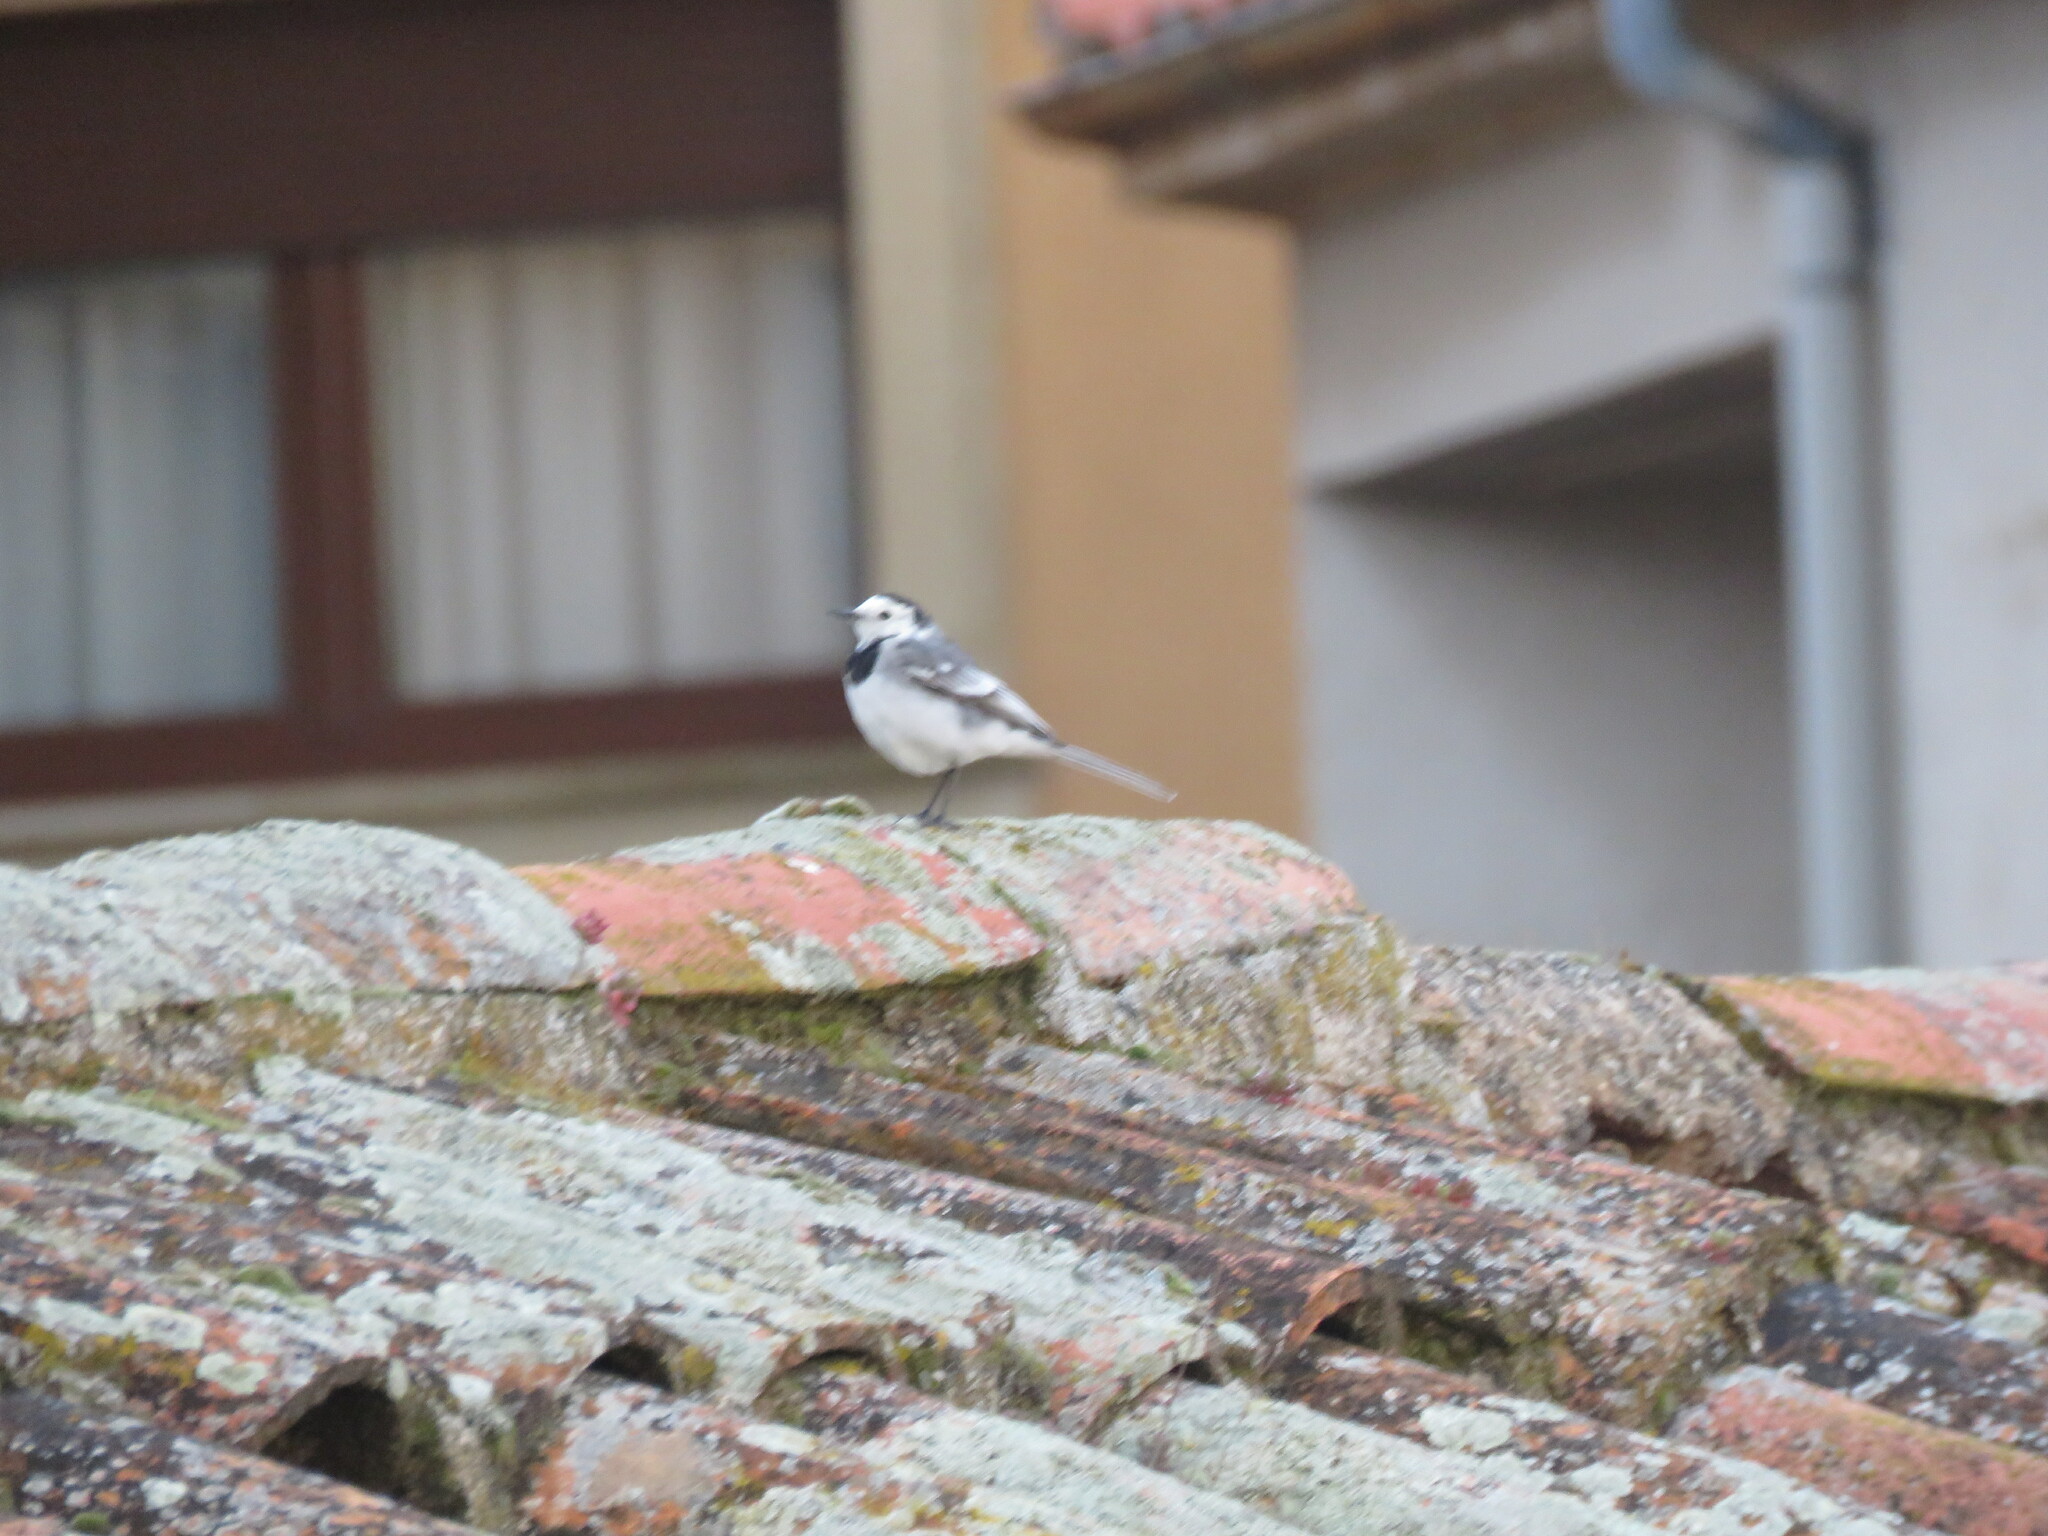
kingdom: Animalia
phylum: Chordata
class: Aves
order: Passeriformes
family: Motacillidae
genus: Motacilla
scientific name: Motacilla alba
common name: White wagtail
